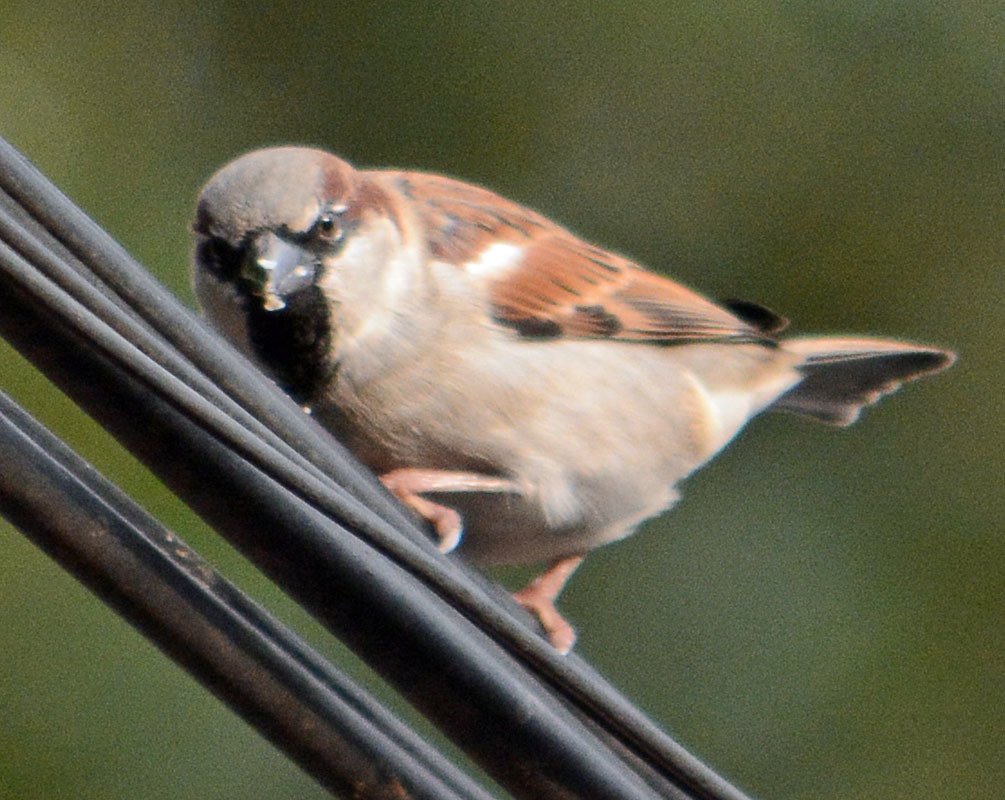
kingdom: Animalia
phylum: Chordata
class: Aves
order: Passeriformes
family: Passeridae
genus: Passer
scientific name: Passer domesticus
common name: House sparrow
